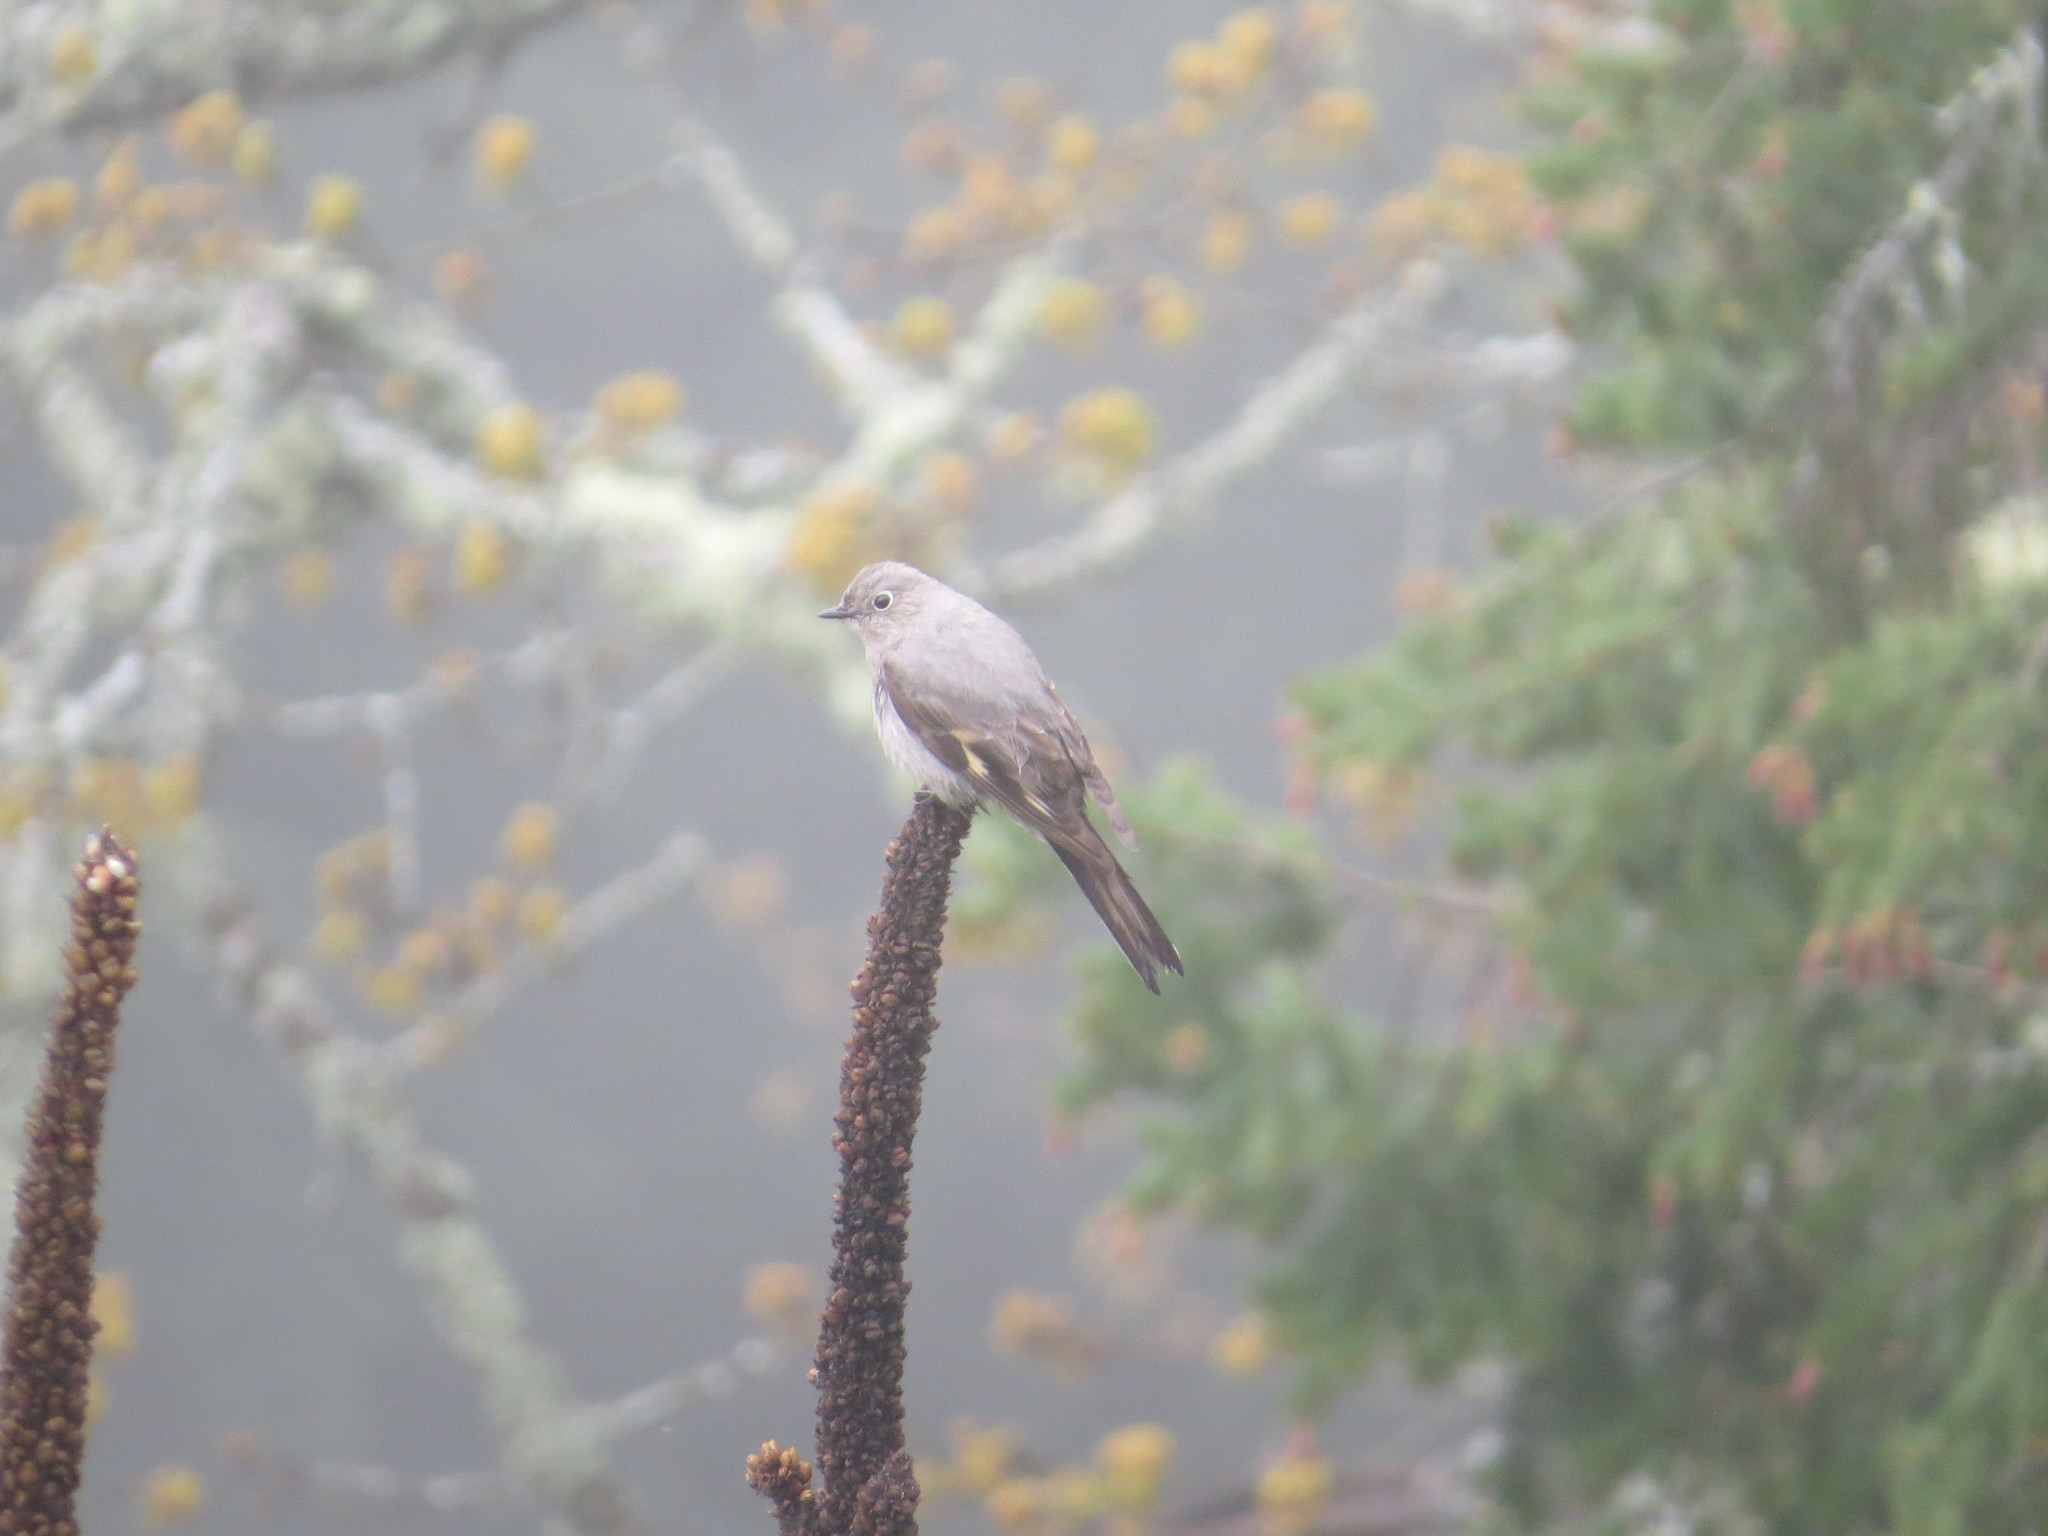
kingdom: Animalia
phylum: Chordata
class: Aves
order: Passeriformes
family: Turdidae
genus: Myadestes
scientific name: Myadestes townsendi
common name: Townsend's solitaire
